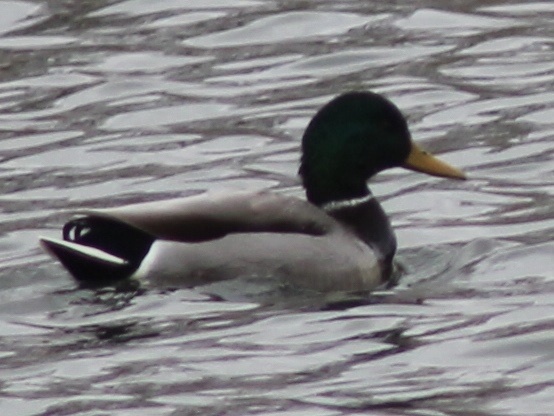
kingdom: Animalia
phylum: Chordata
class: Aves
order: Anseriformes
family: Anatidae
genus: Anas
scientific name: Anas platyrhynchos
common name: Mallard
